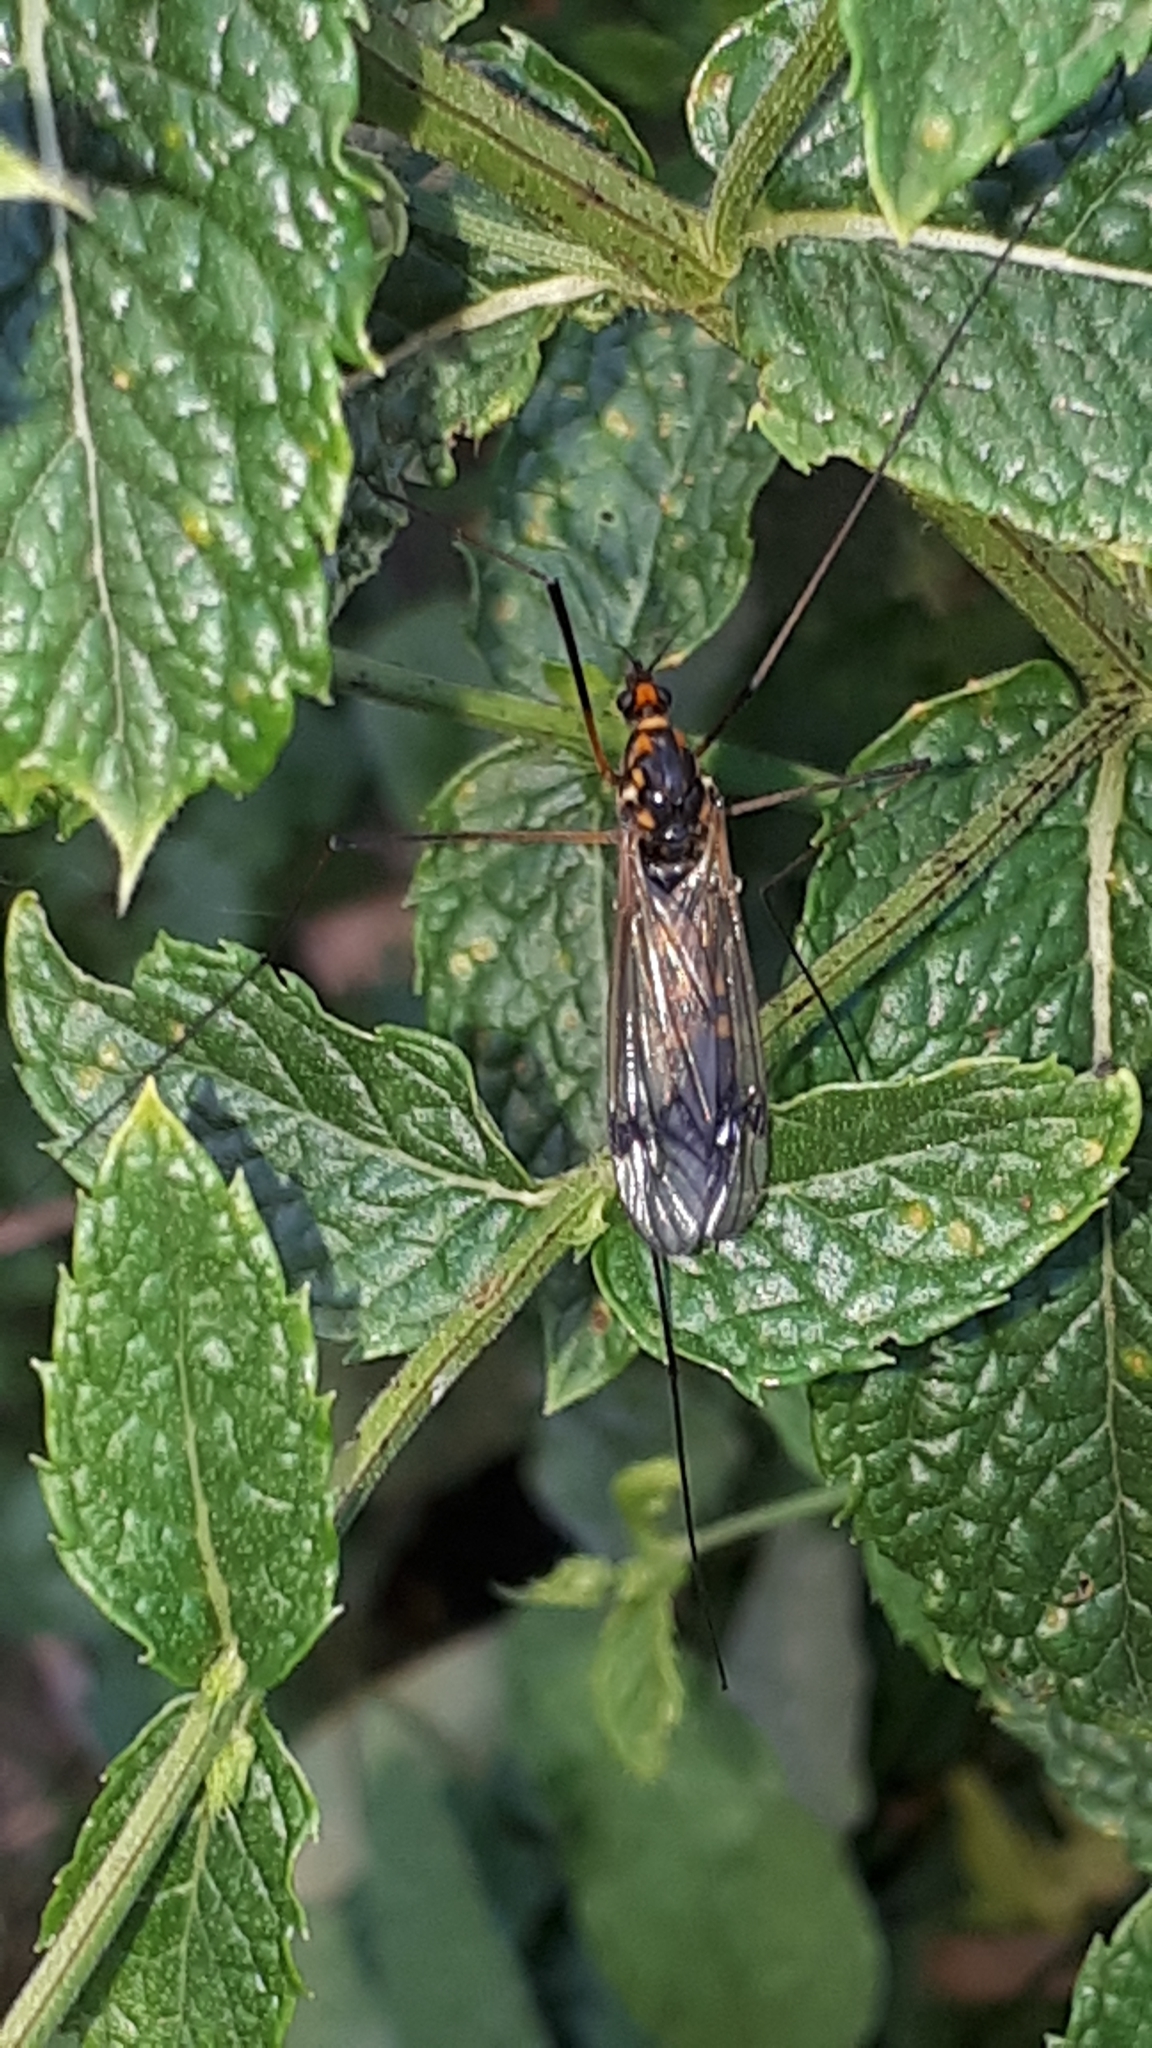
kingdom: Animalia
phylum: Arthropoda
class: Insecta
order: Diptera
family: Tipulidae
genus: Nephrotoma
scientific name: Nephrotoma crocata
